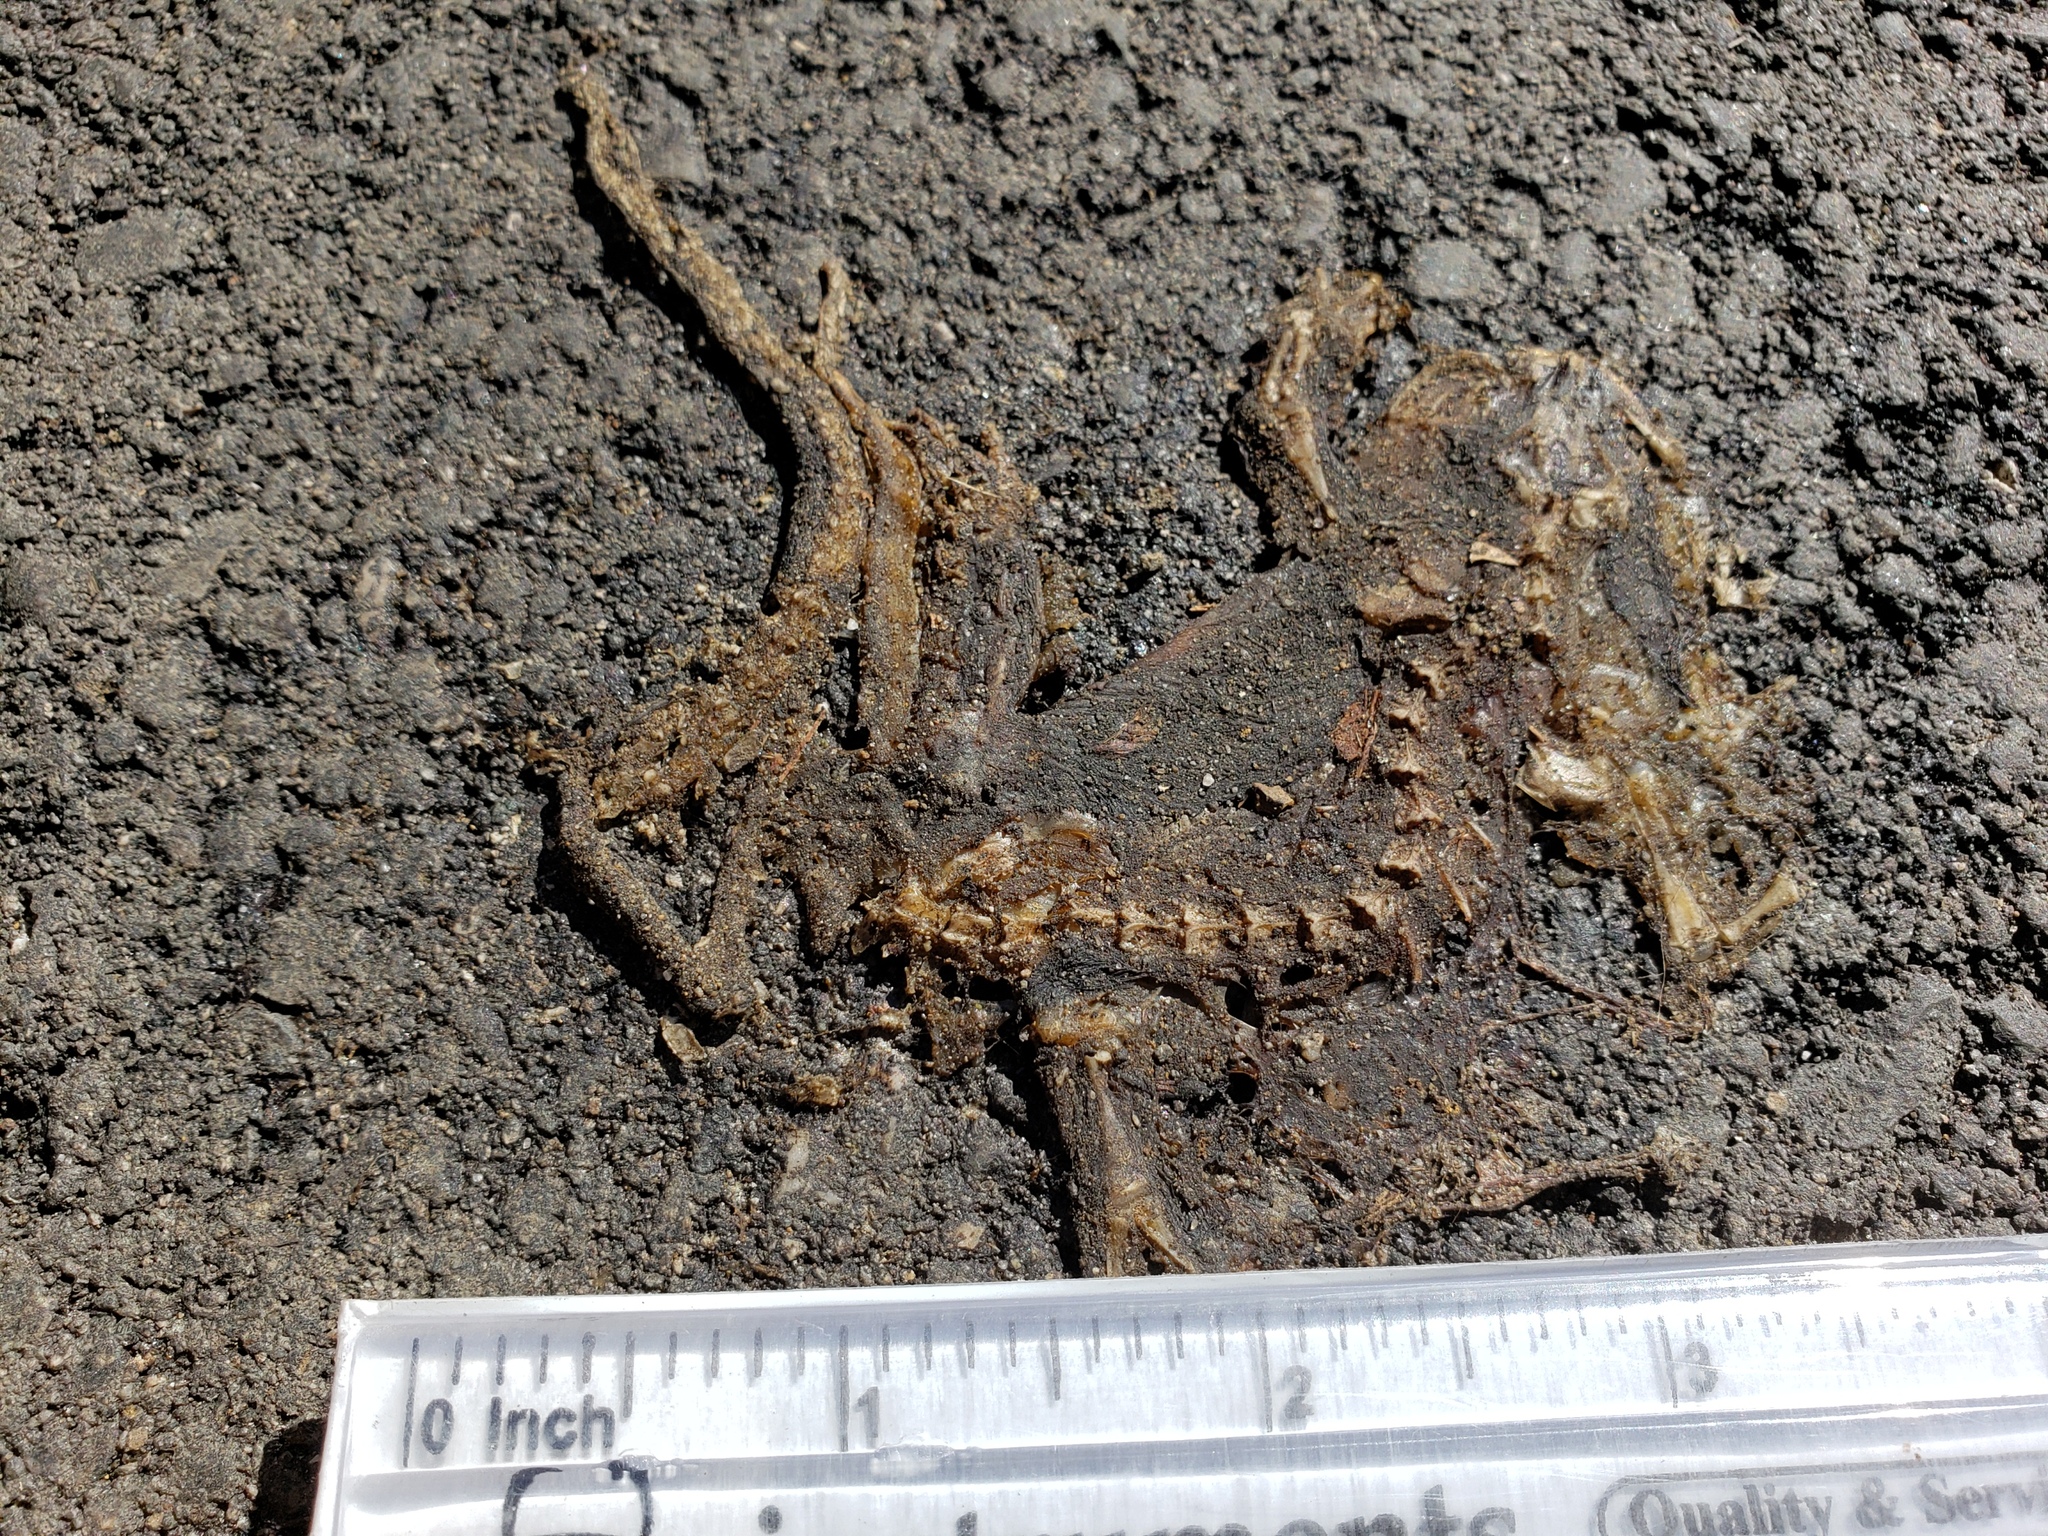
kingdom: Animalia
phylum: Chordata
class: Amphibia
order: Caudata
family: Salamandridae
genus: Taricha
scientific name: Taricha
